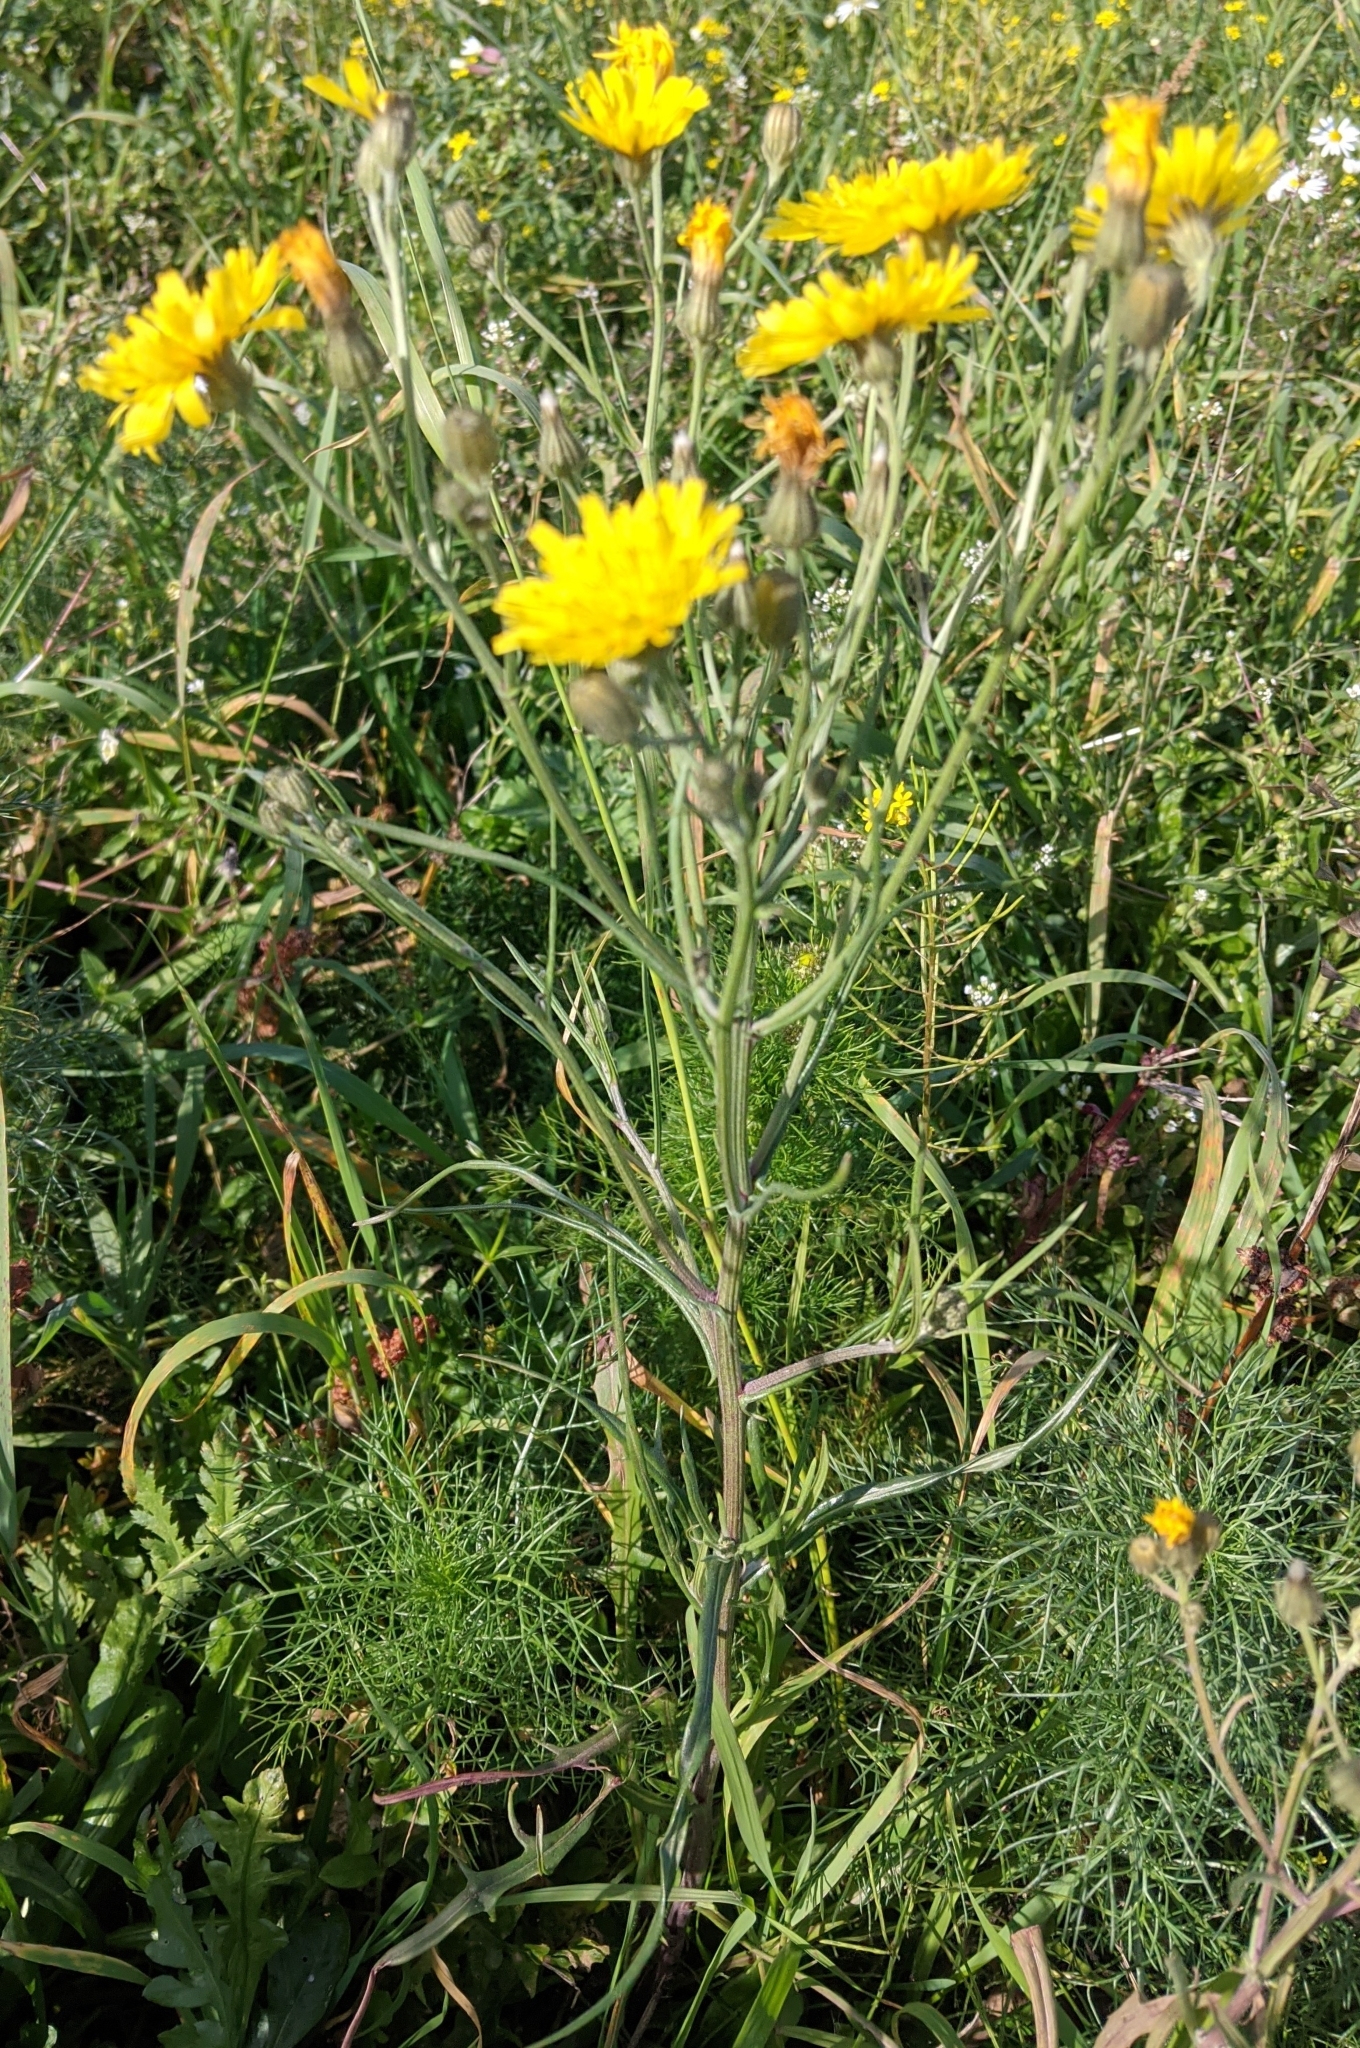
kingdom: Plantae
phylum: Tracheophyta
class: Magnoliopsida
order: Asterales
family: Asteraceae
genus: Crepis
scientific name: Crepis tectorum
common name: Narrow-leaved hawk's-beard
